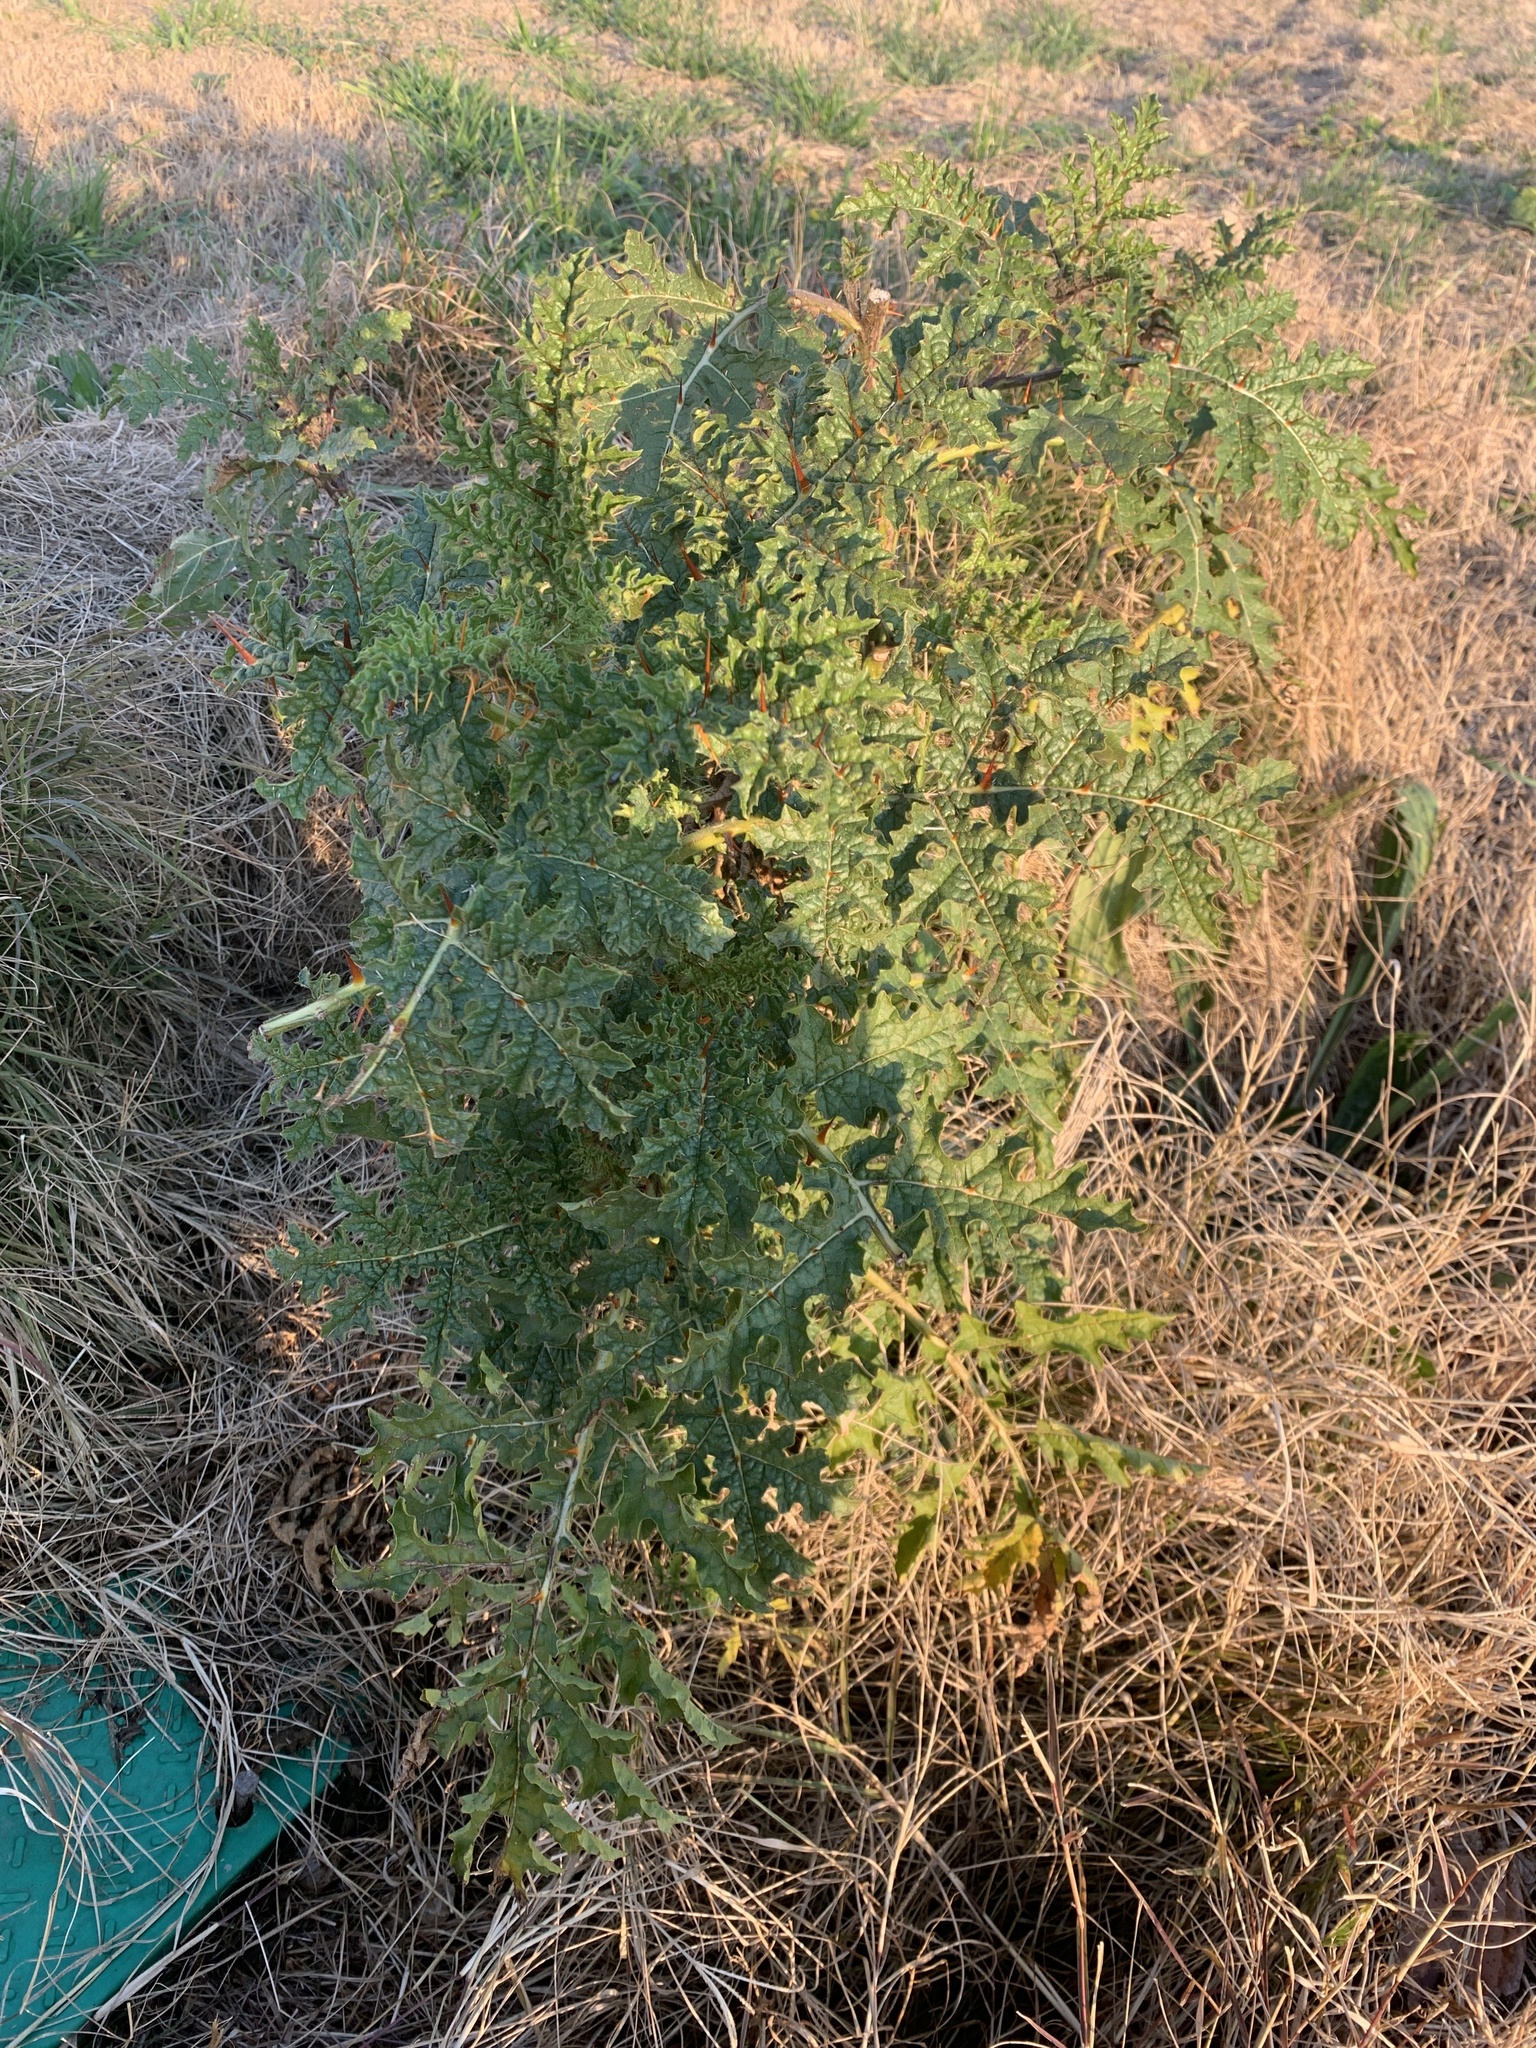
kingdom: Plantae
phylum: Tracheophyta
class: Magnoliopsida
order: Solanales
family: Solanaceae
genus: Solanum
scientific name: Solanum sisymbriifolium
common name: Red buffalo-bur
